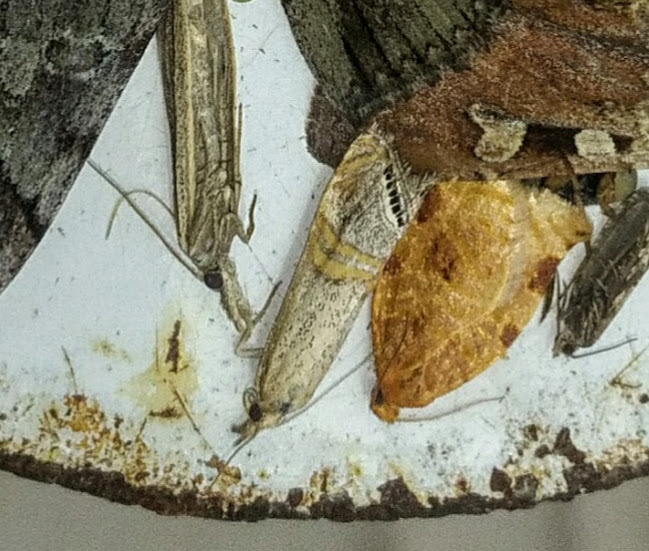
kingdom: Animalia
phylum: Arthropoda
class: Insecta
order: Lepidoptera
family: Crambidae
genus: Euchromius
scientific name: Euchromius ocellea
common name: Necklace veneer moth
